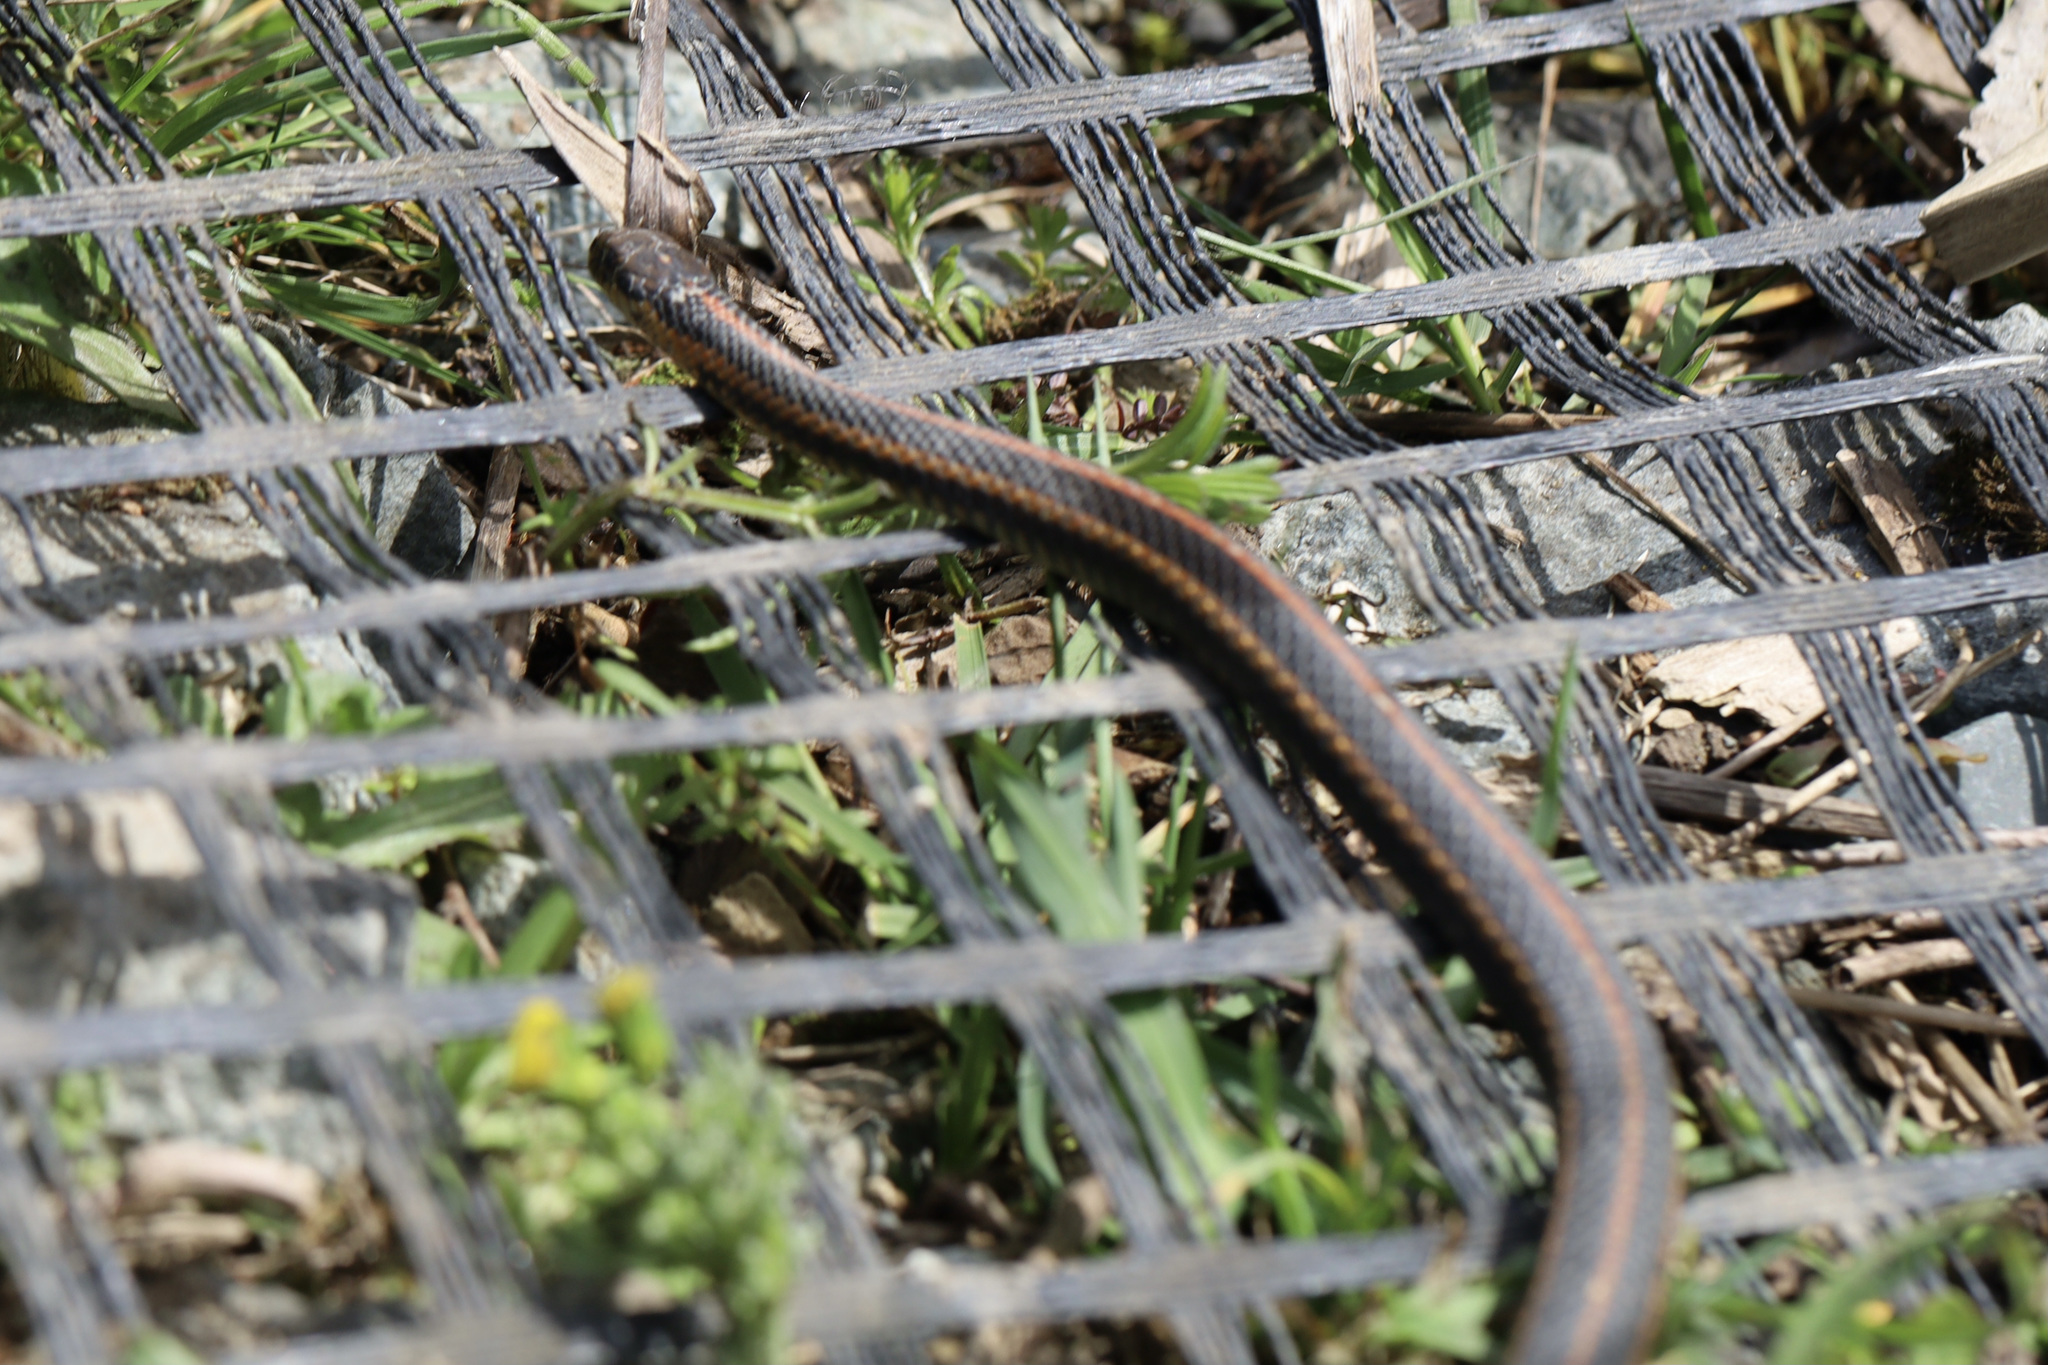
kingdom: Animalia
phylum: Chordata
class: Squamata
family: Colubridae
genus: Thamnophis
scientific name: Thamnophis ordinoides
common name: Northwestern garter snake
